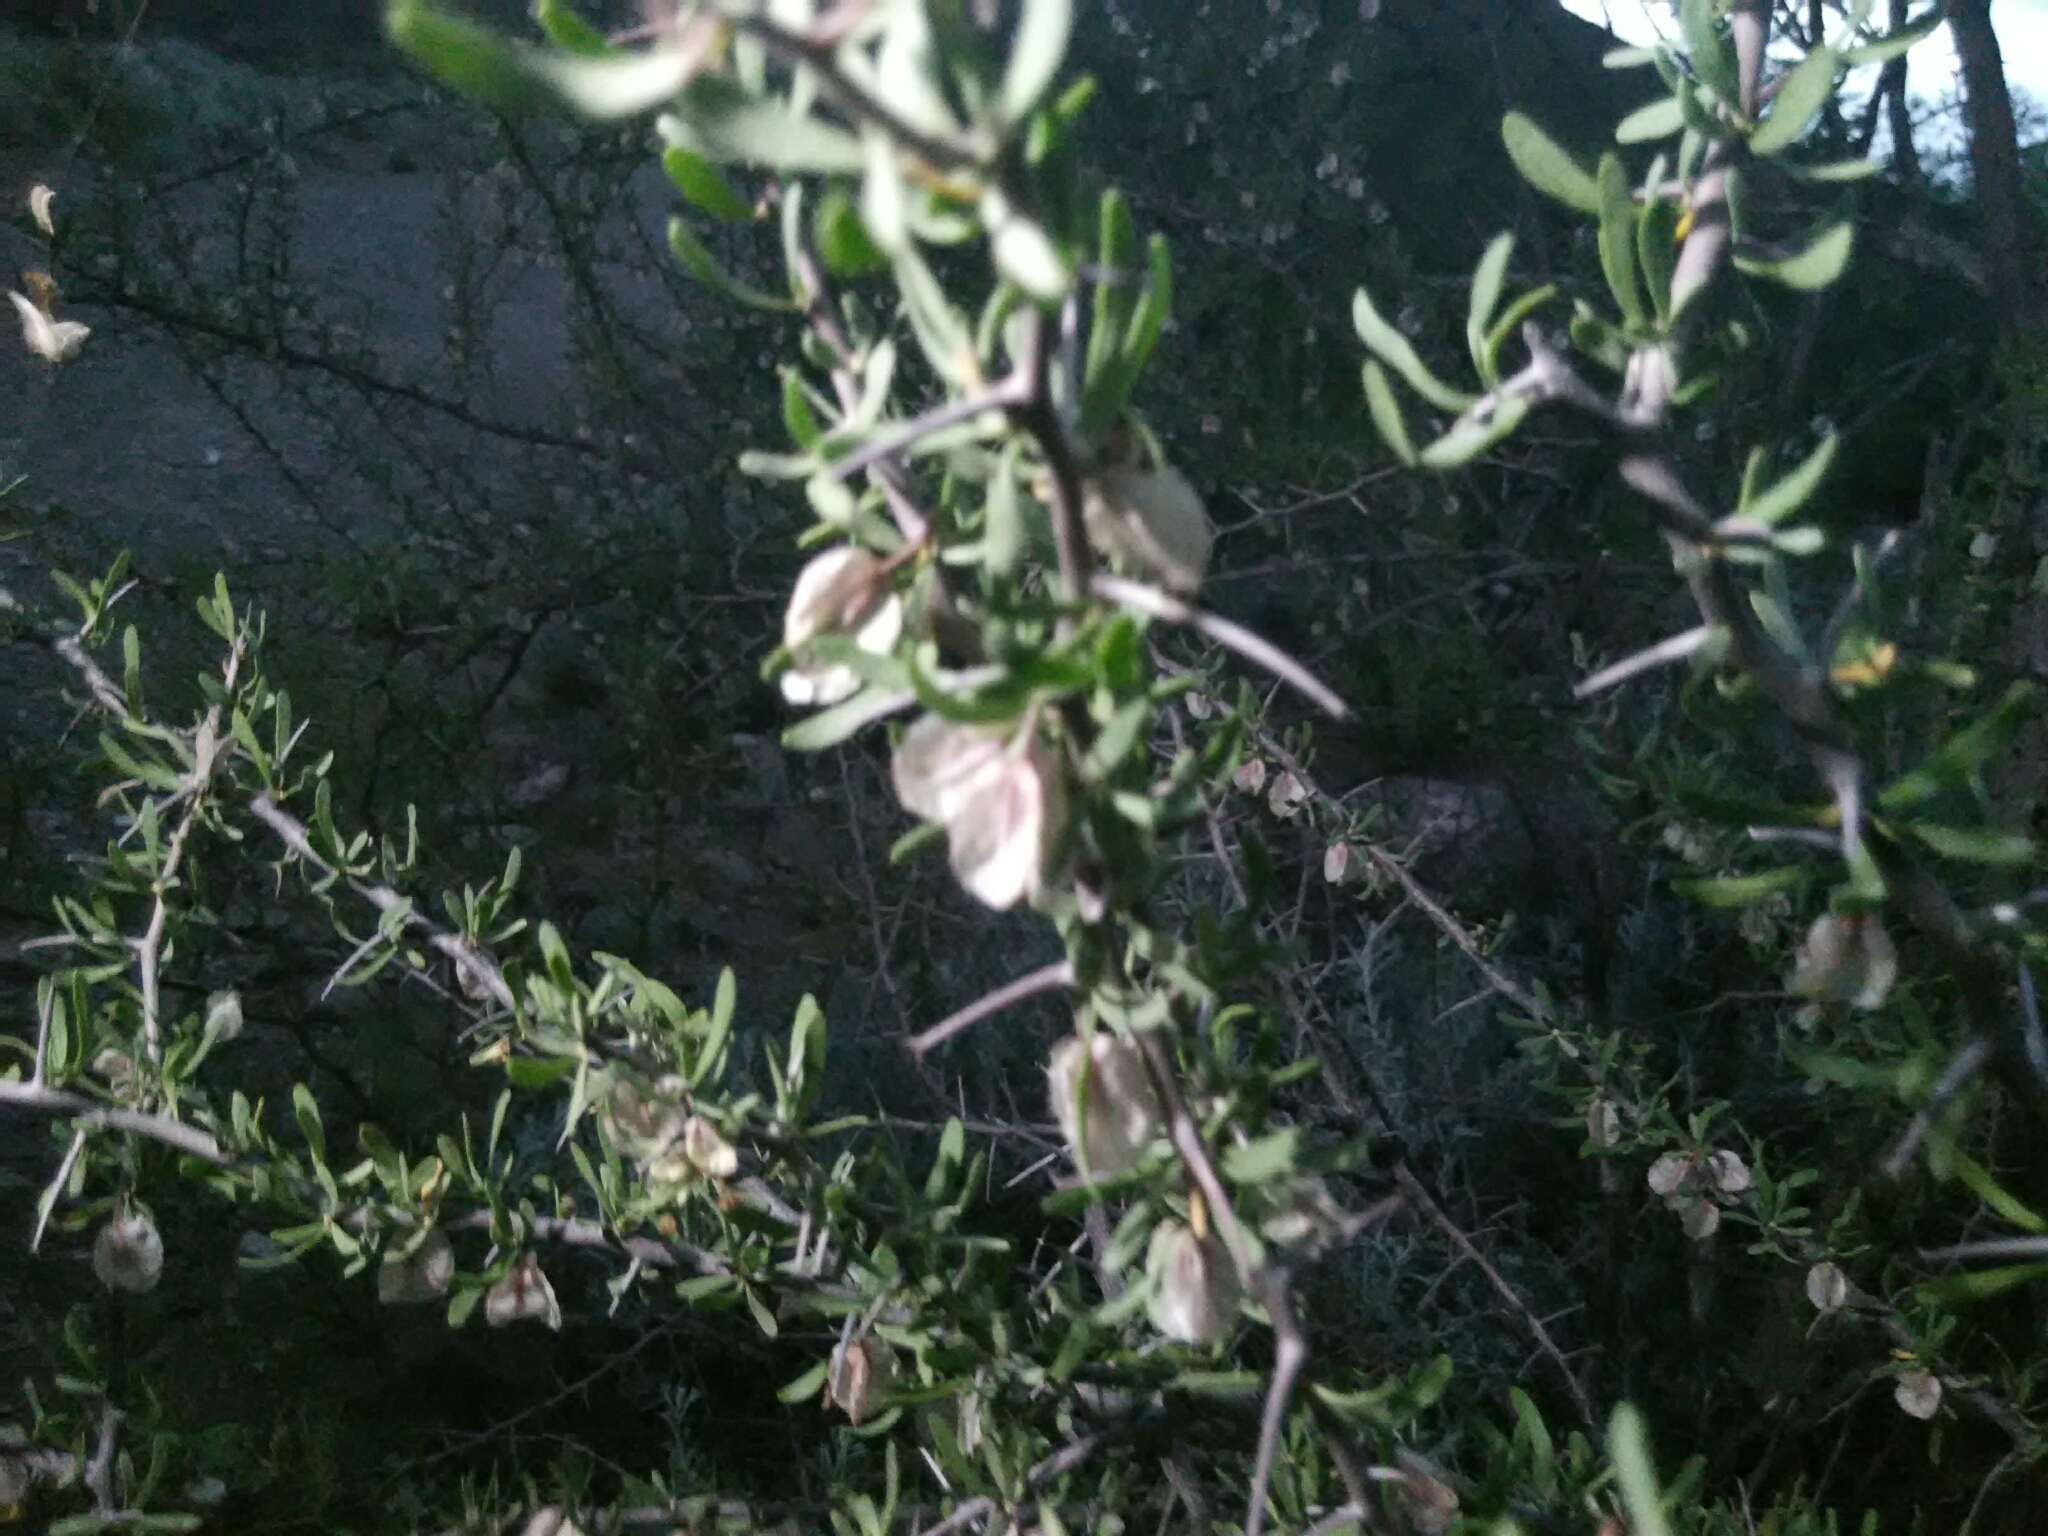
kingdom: Plantae
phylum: Tracheophyta
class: Magnoliopsida
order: Caryophyllales
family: Nyctaginaceae
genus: Bougainvillea
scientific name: Bougainvillea spinosa
